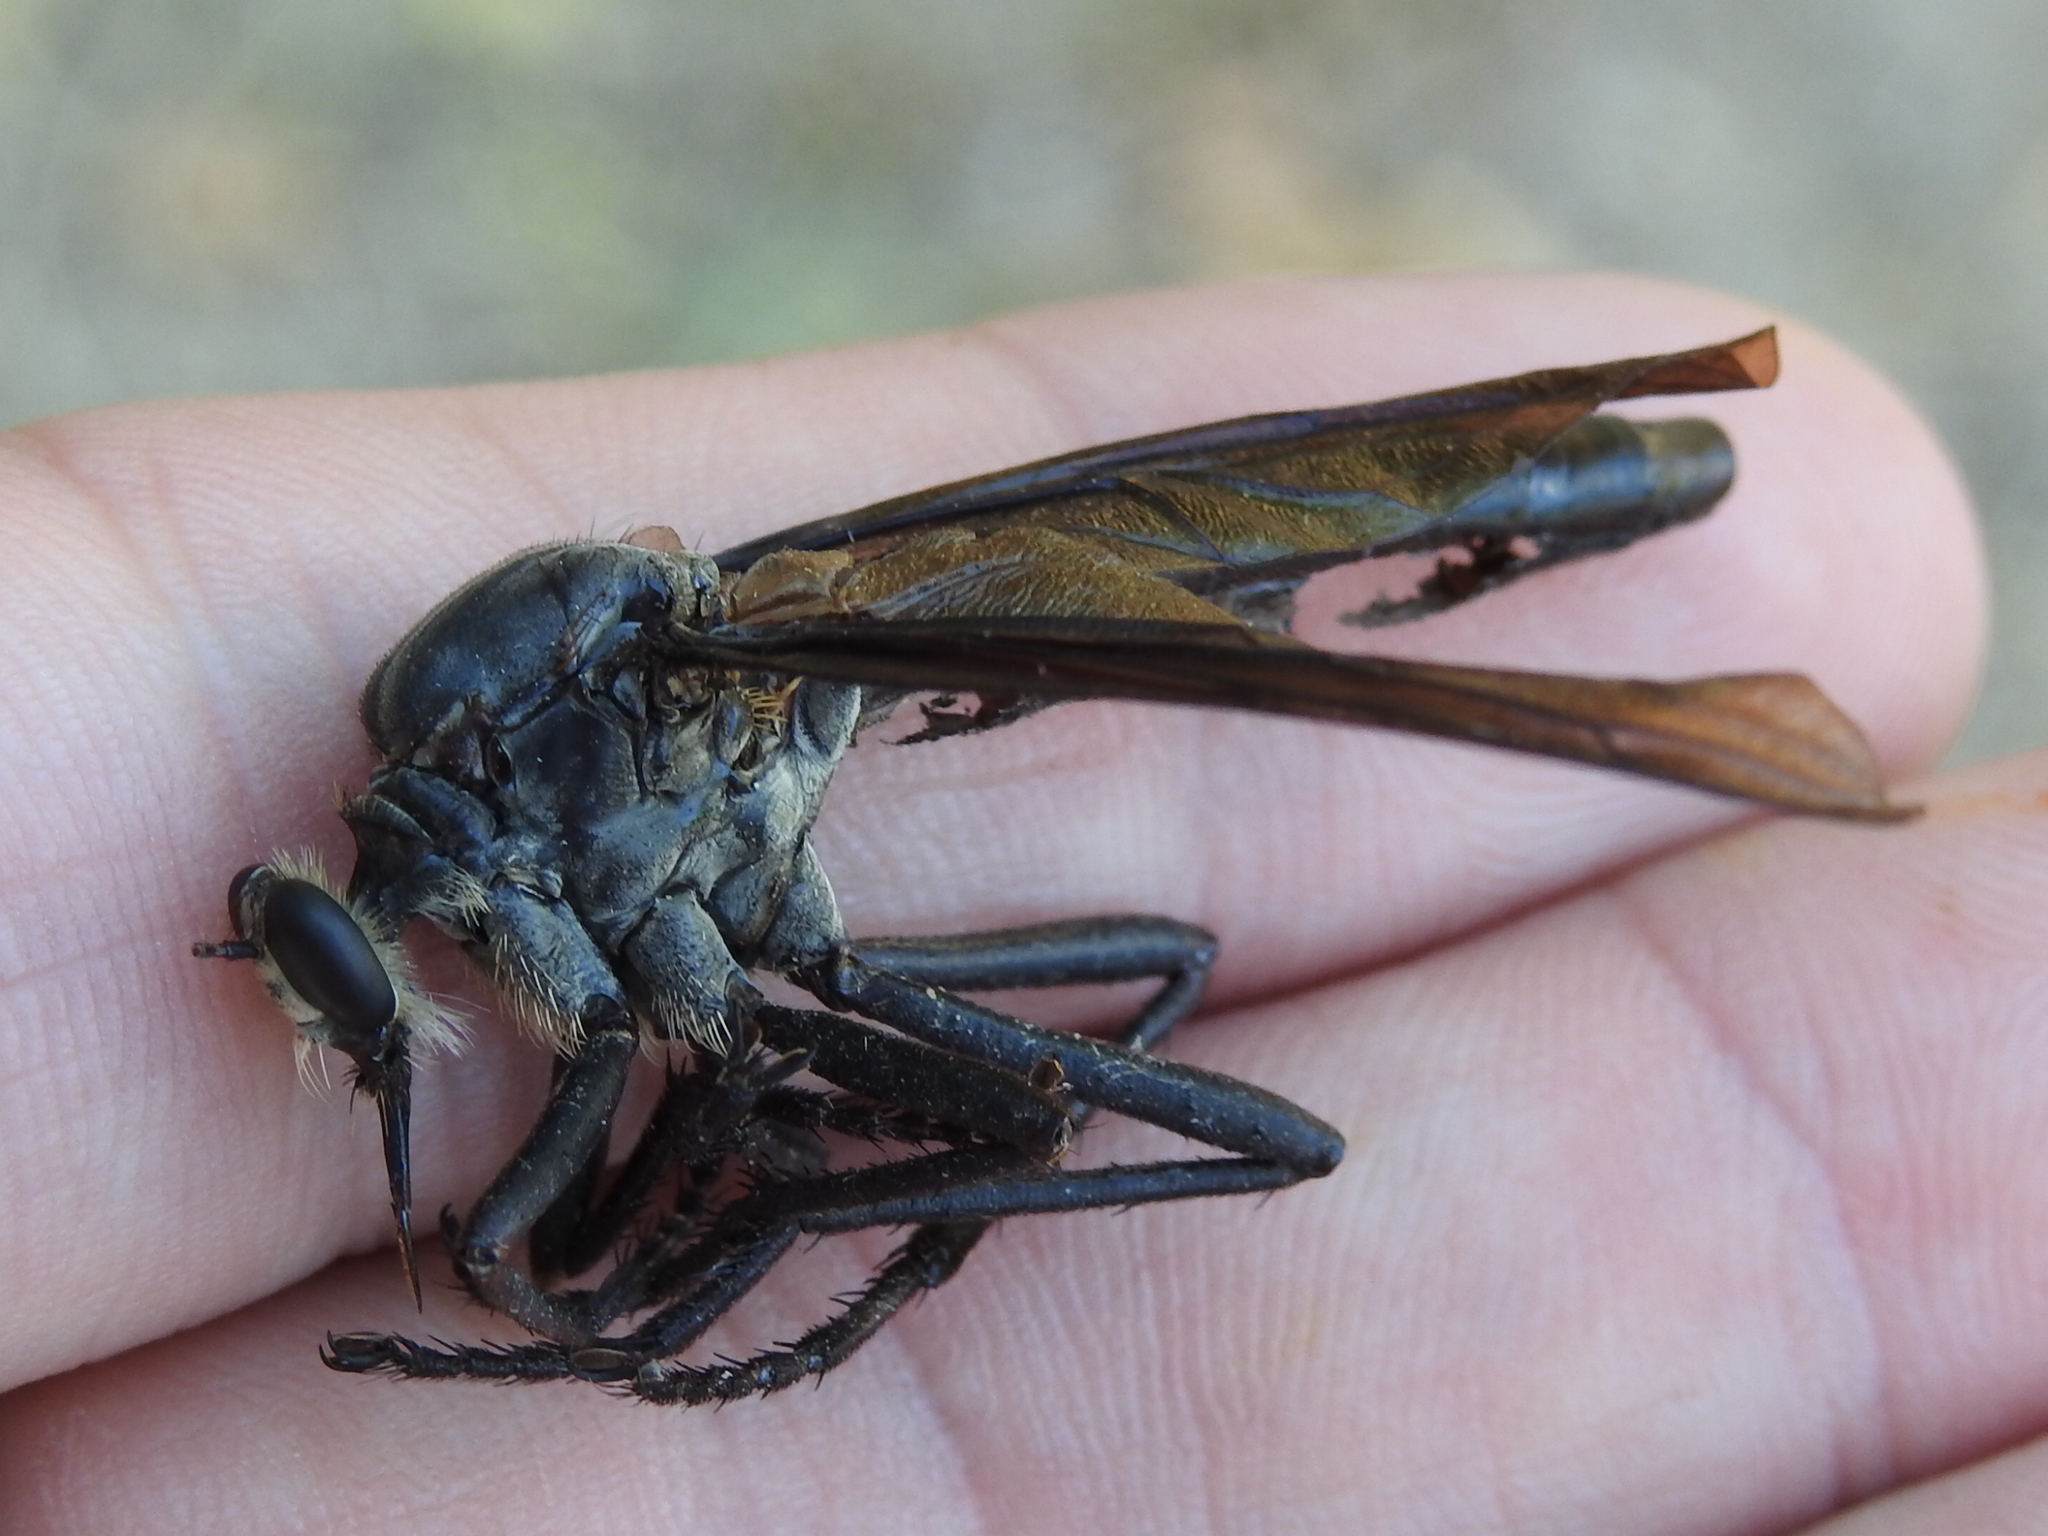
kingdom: Animalia
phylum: Arthropoda
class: Insecta
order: Diptera
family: Asilidae
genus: Microstylum
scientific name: Microstylum morosum
